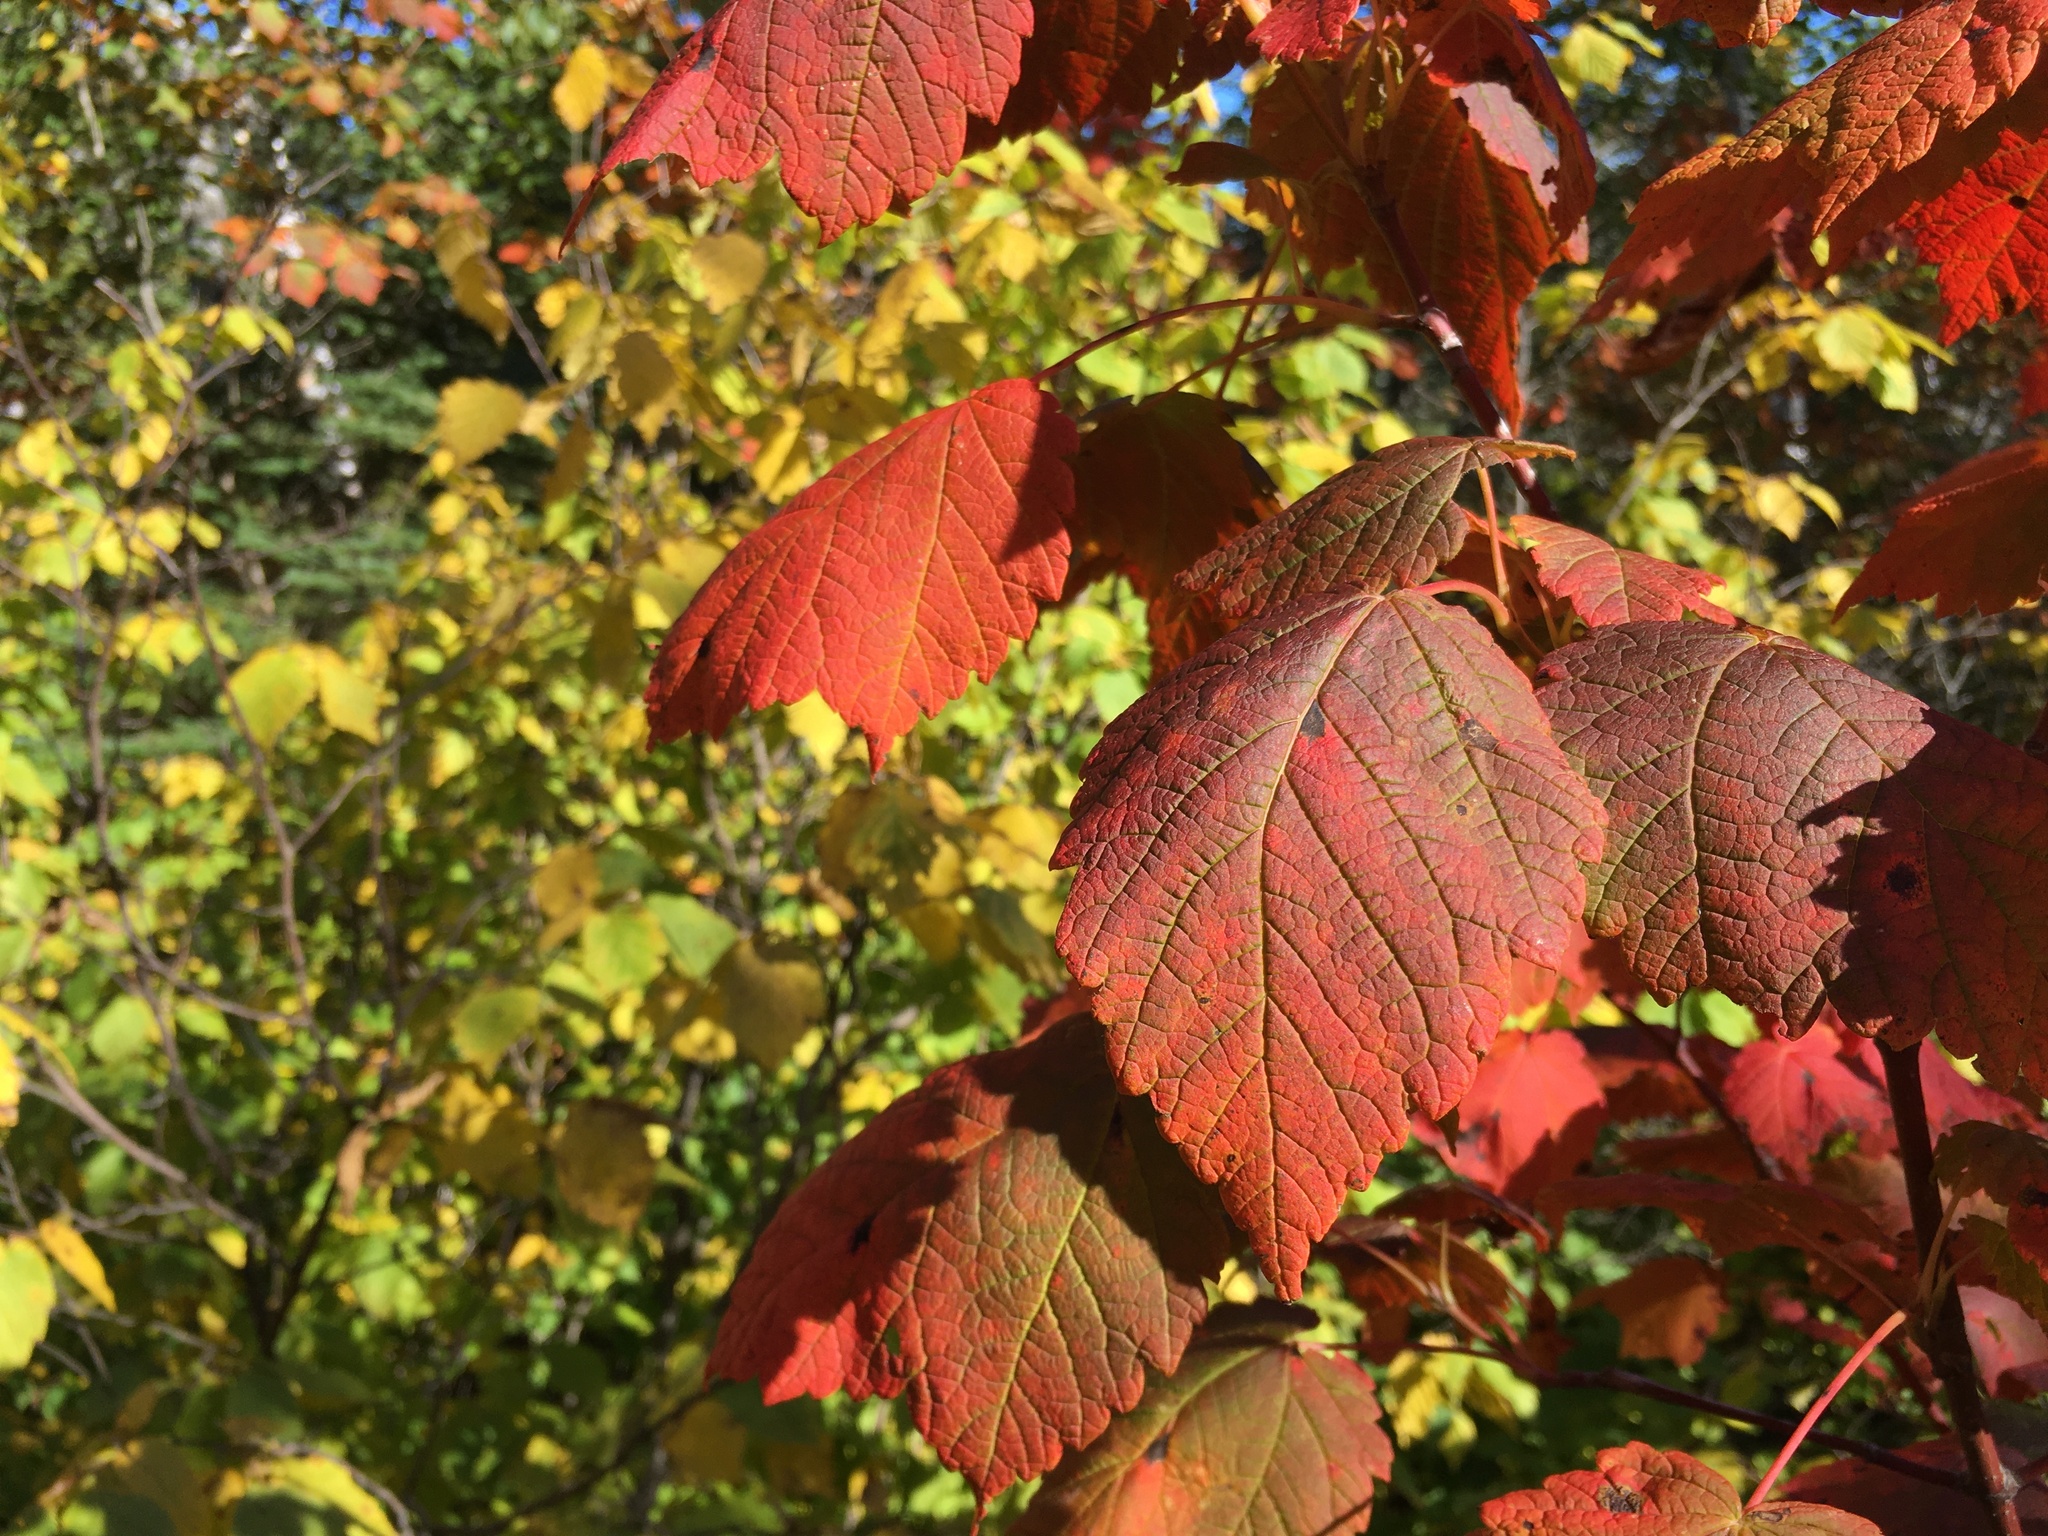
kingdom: Plantae
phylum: Tracheophyta
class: Magnoliopsida
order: Sapindales
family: Sapindaceae
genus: Acer
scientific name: Acer spicatum
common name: Mountain maple
